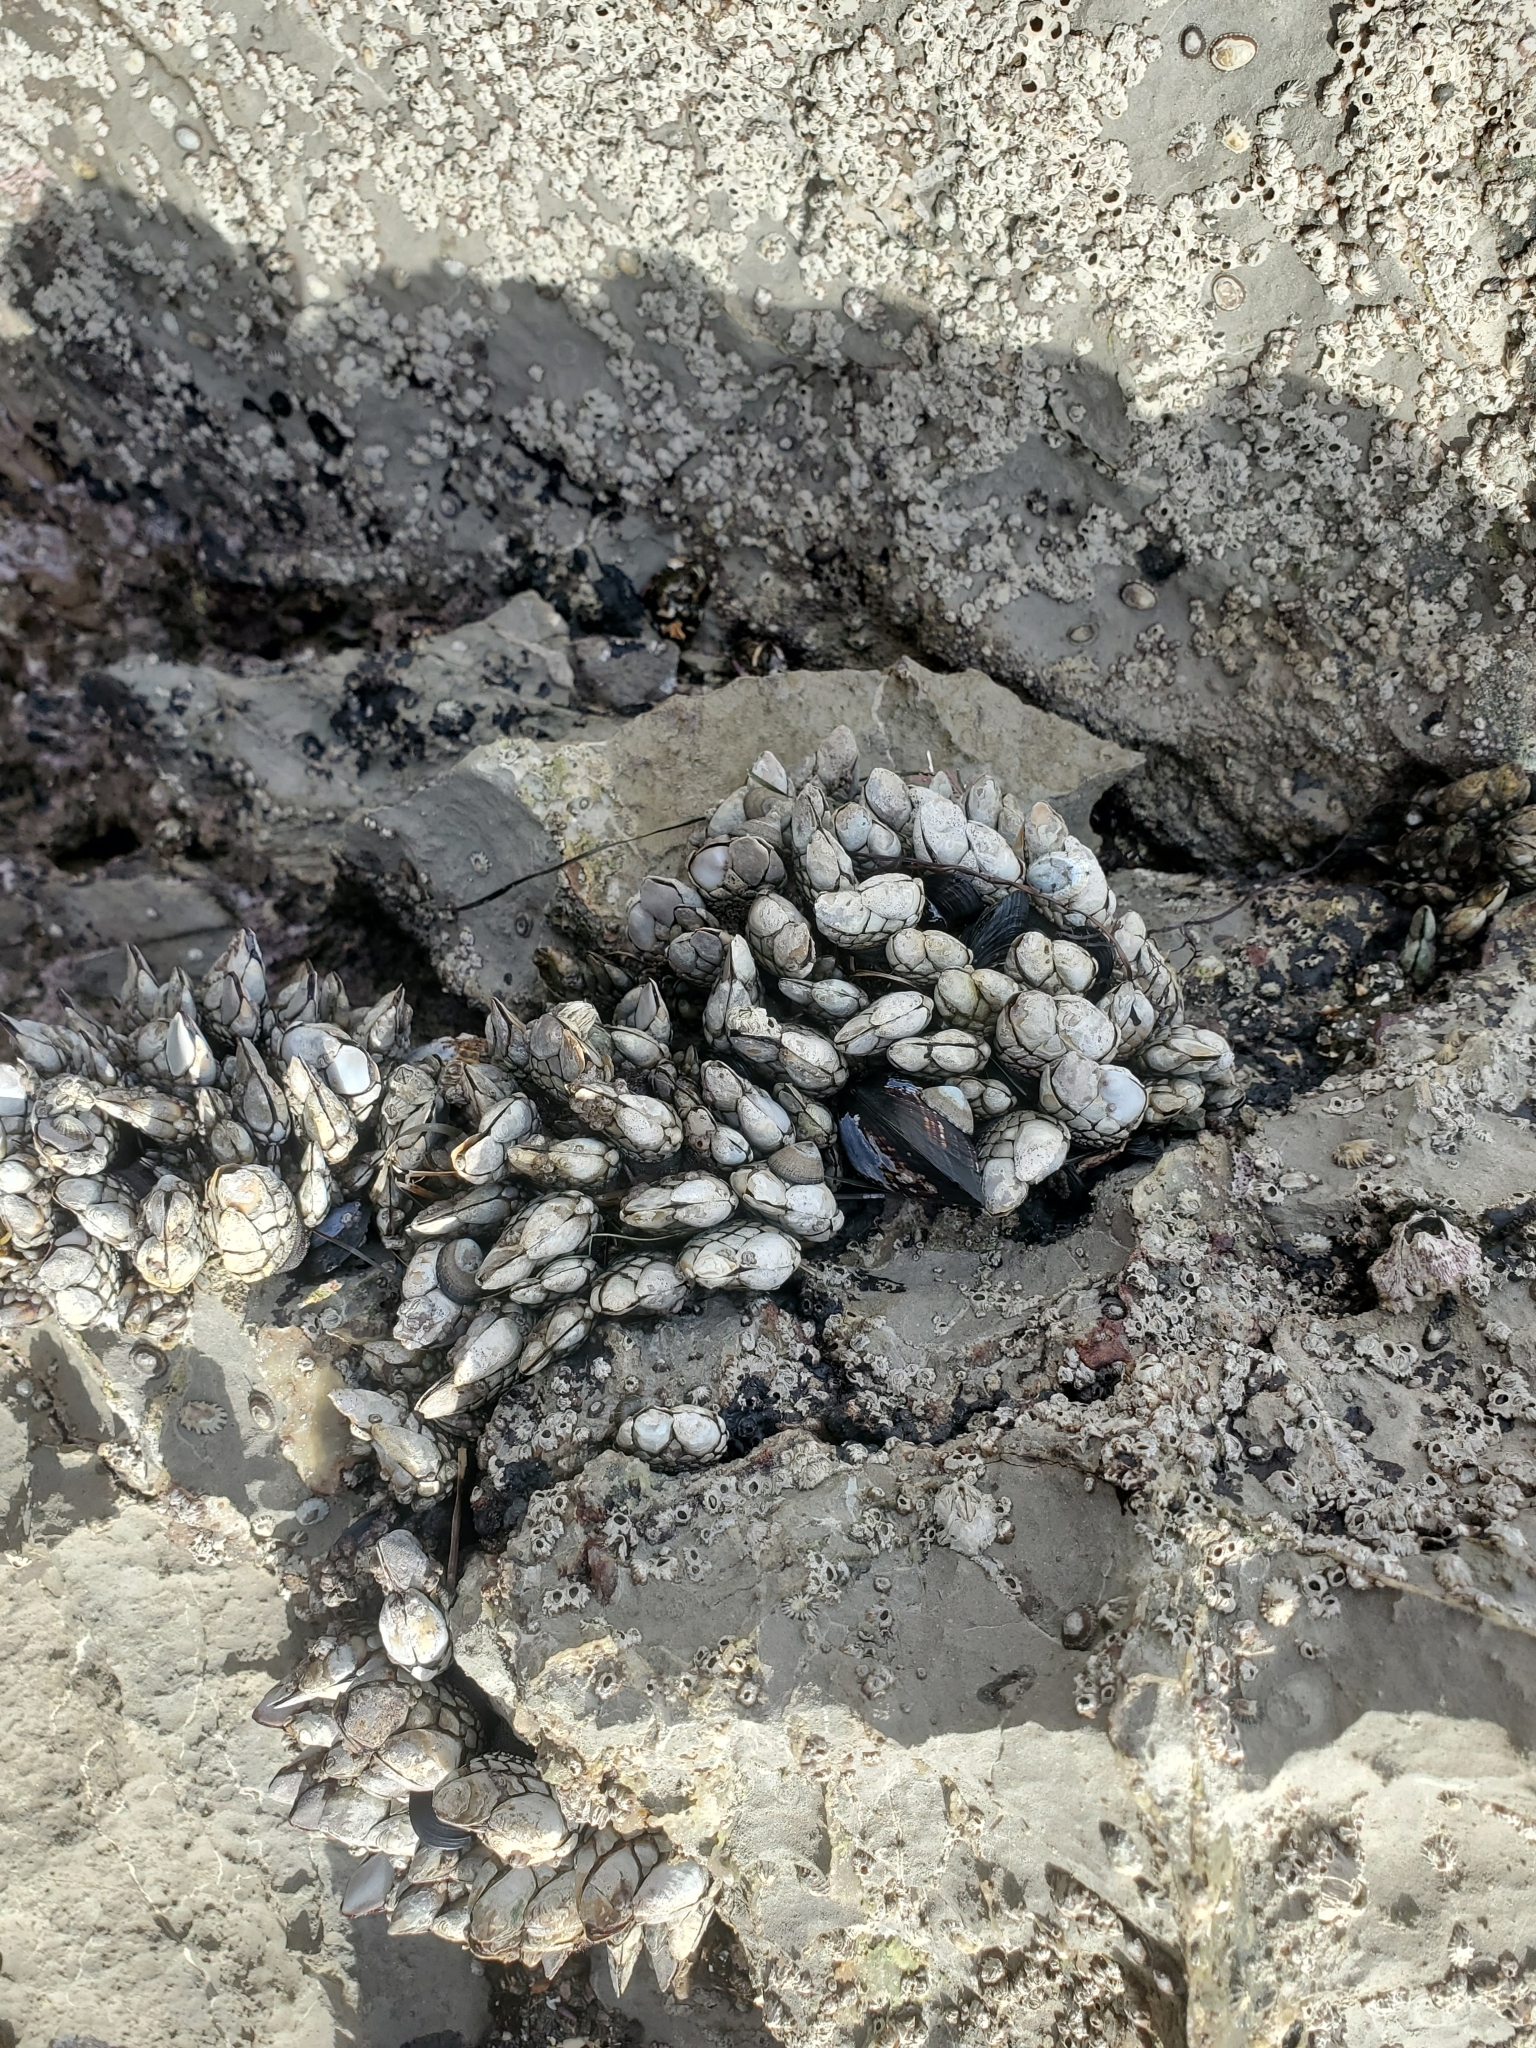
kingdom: Animalia
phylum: Arthropoda
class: Maxillopoda
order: Pedunculata
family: Pollicipedidae
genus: Pollicipes
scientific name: Pollicipes polymerus
